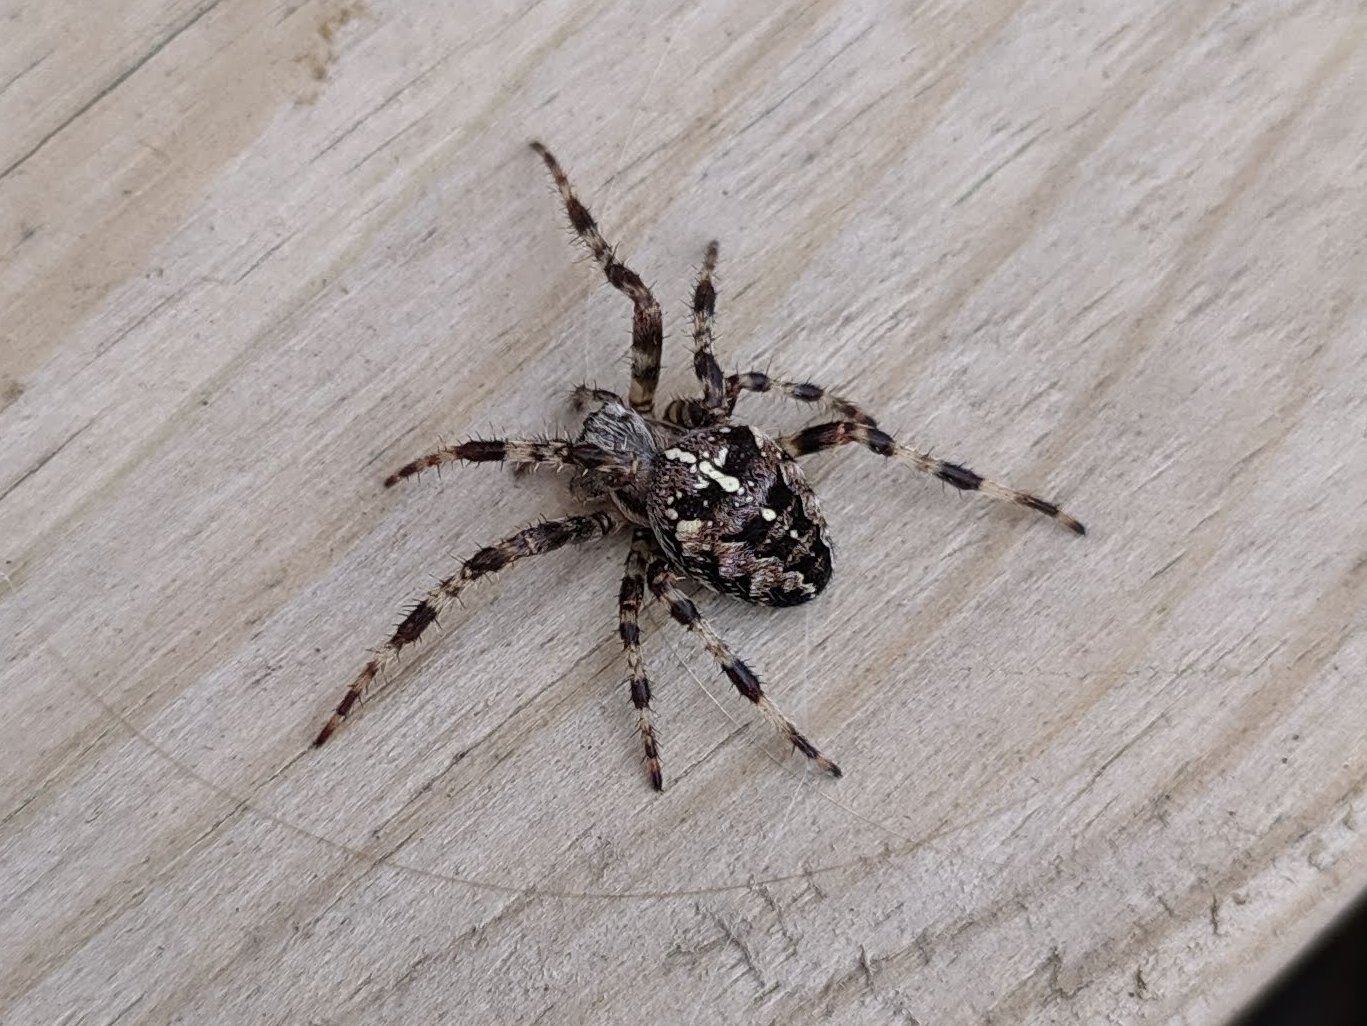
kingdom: Animalia
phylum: Arthropoda
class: Arachnida
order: Araneae
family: Araneidae
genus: Araneus
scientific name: Araneus diadematus
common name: Cross orbweaver
